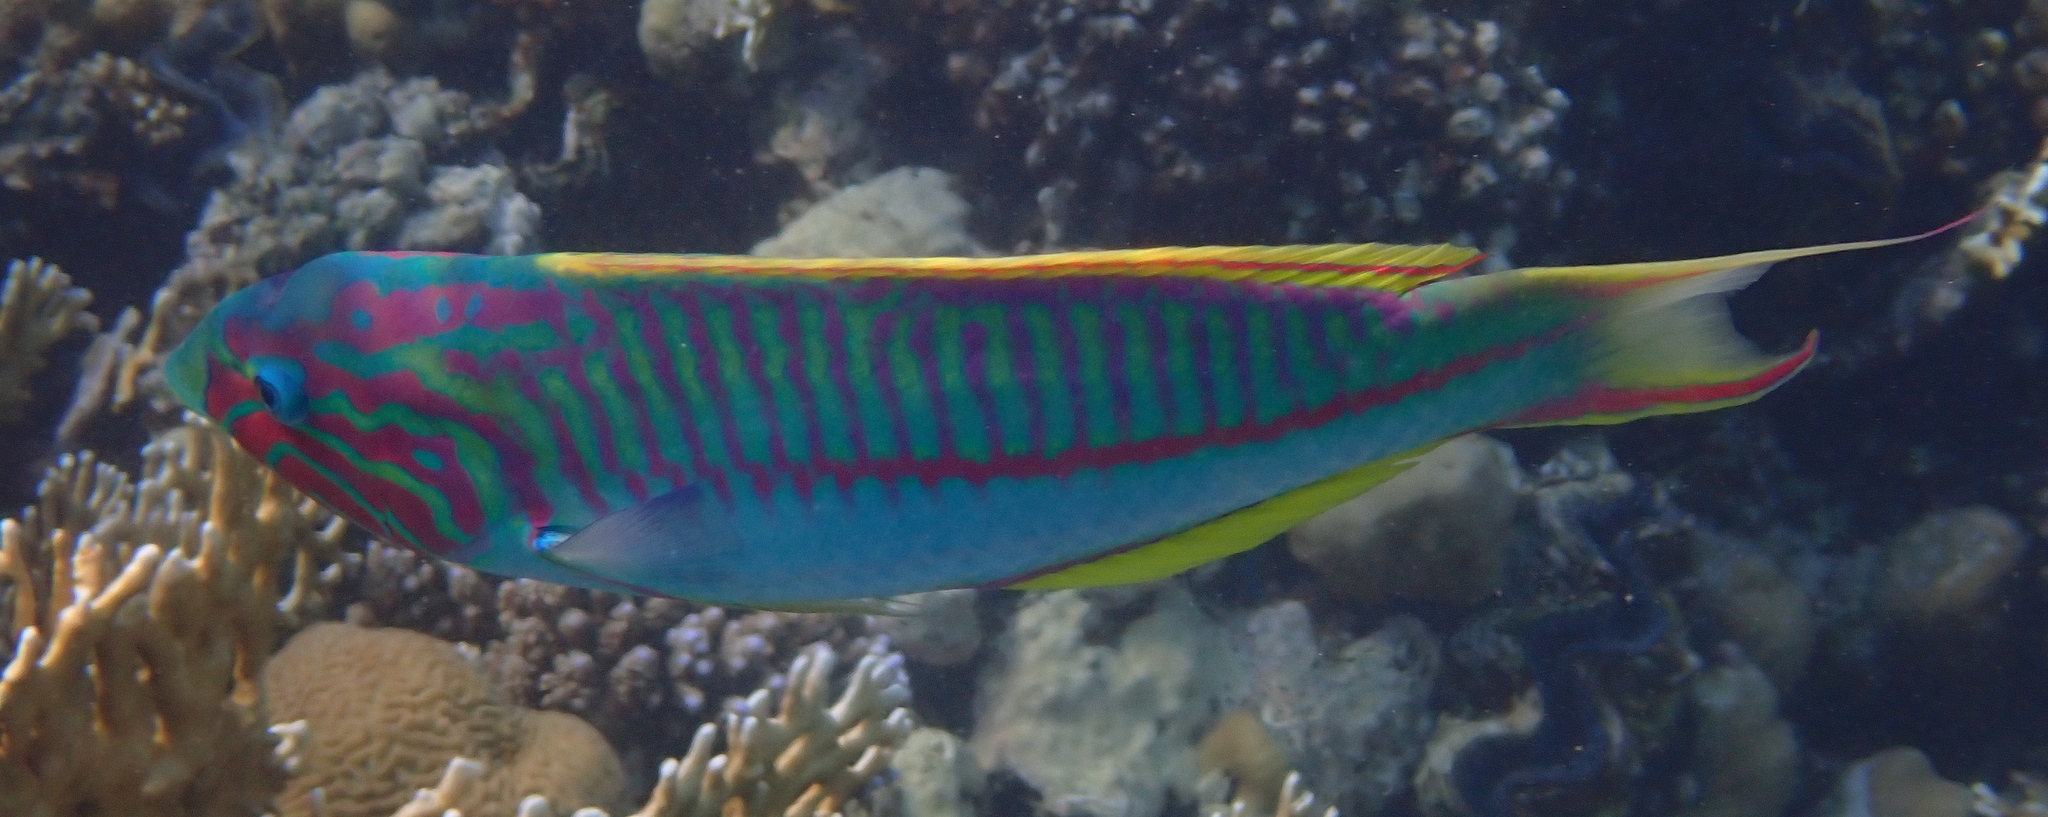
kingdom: Animalia
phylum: Chordata
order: Perciformes
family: Labridae
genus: Thalassoma
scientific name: Thalassoma rueppellii
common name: Klunzinger's wrasse
